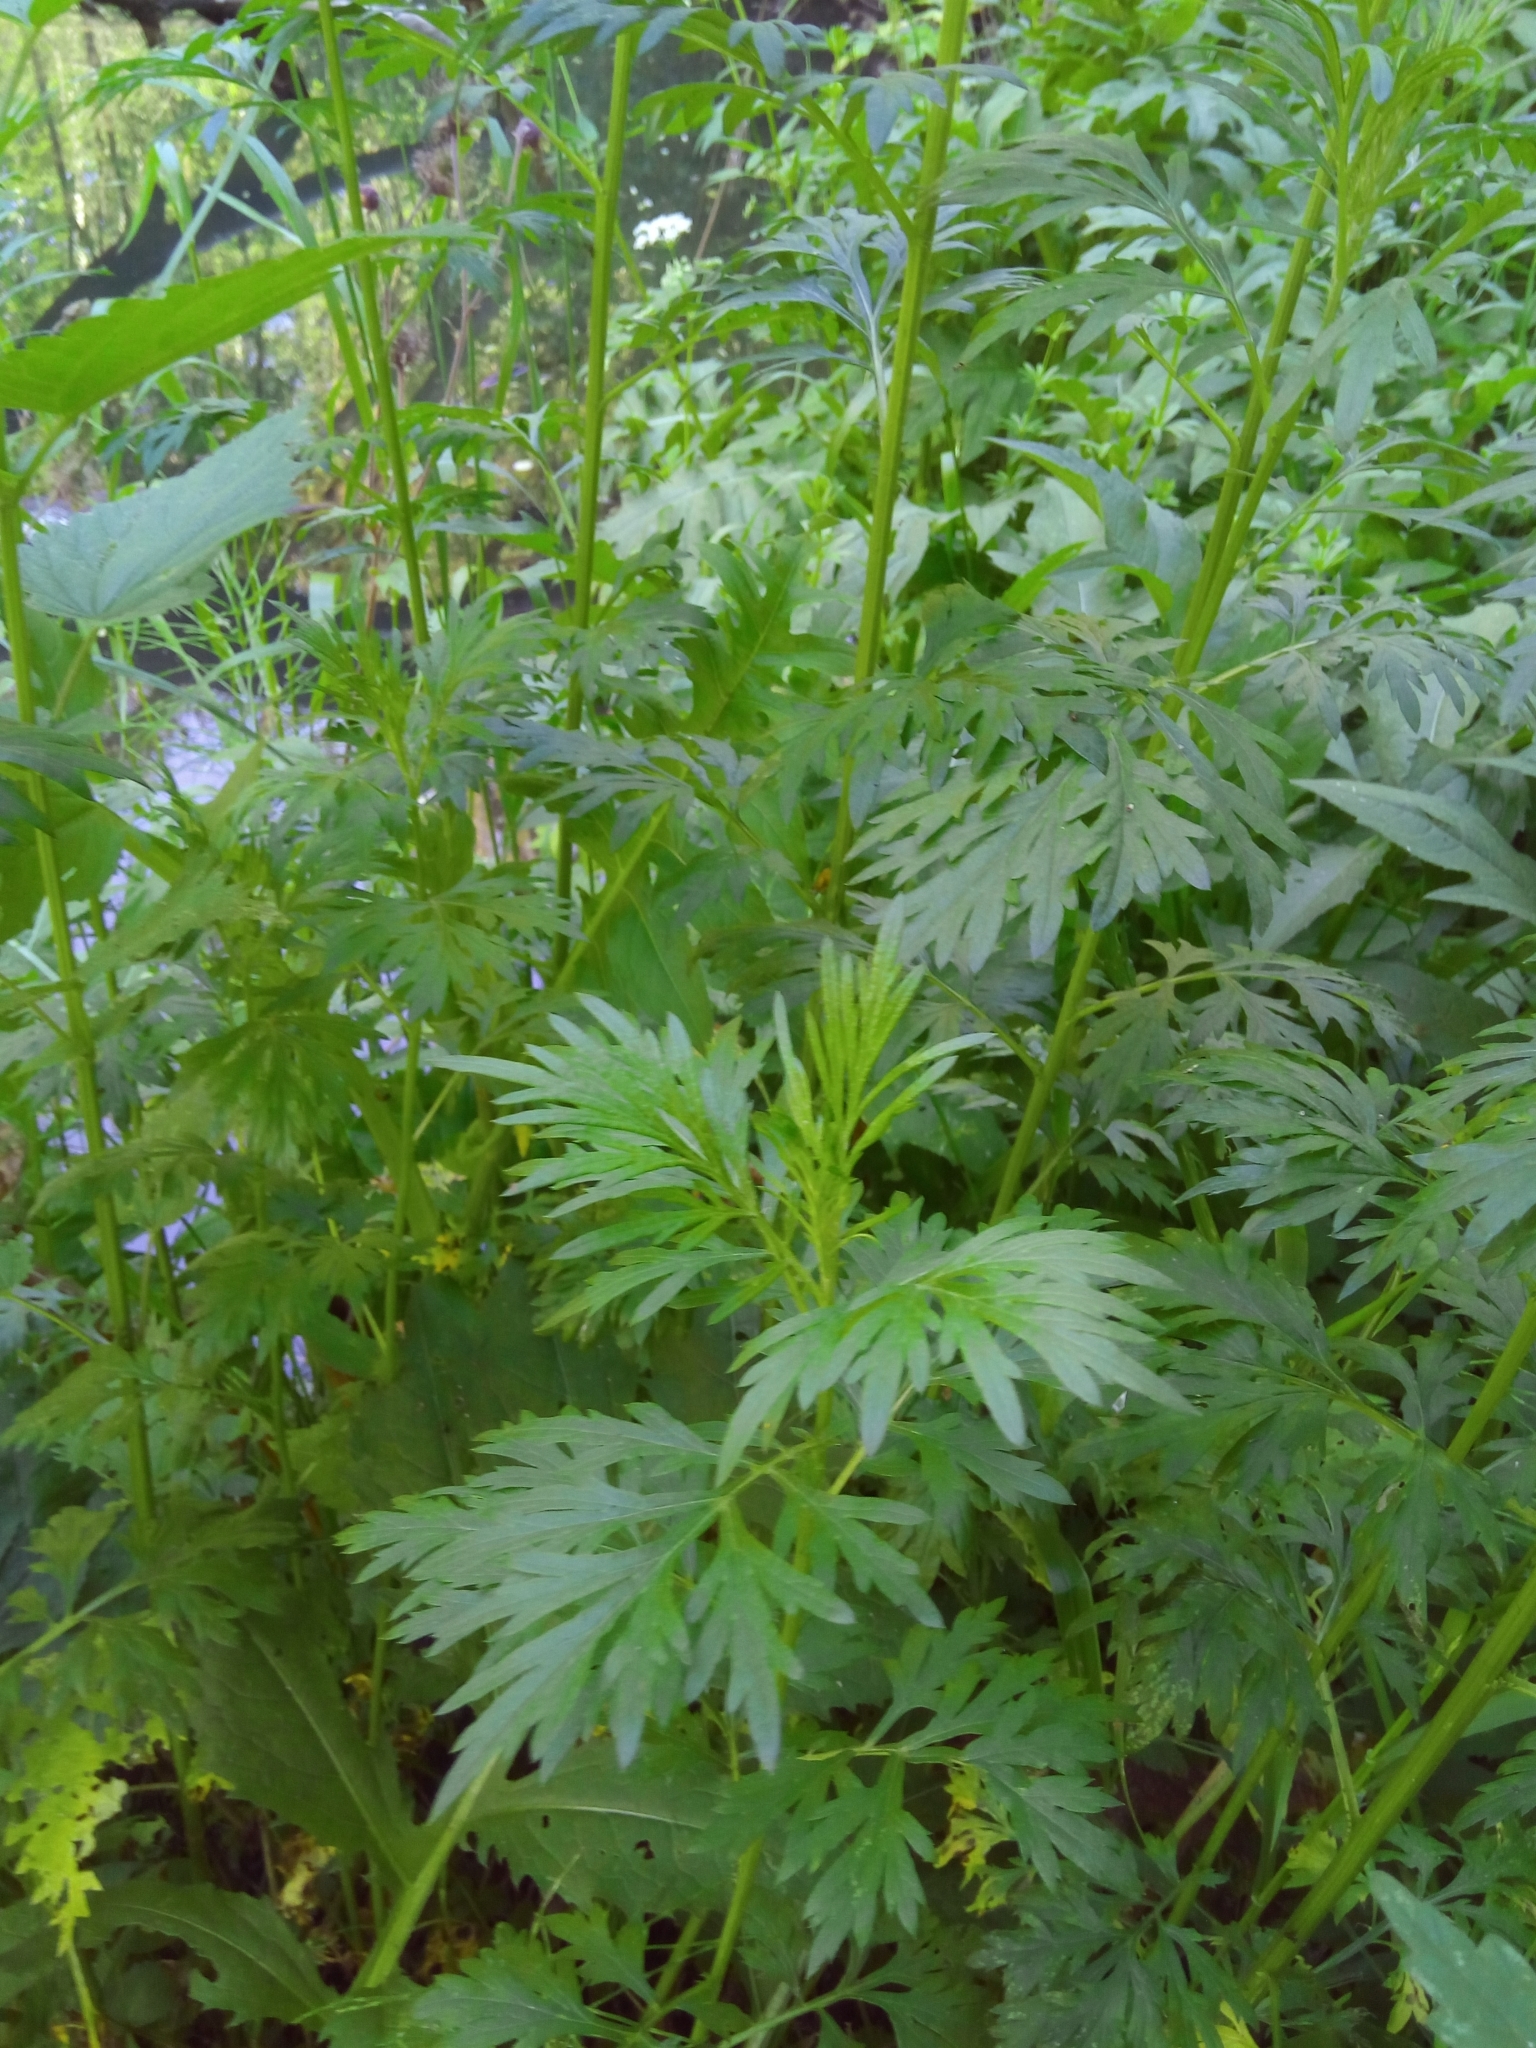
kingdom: Plantae
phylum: Tracheophyta
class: Magnoliopsida
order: Asterales
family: Asteraceae
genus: Artemisia
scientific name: Artemisia vulgaris
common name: Mugwort
